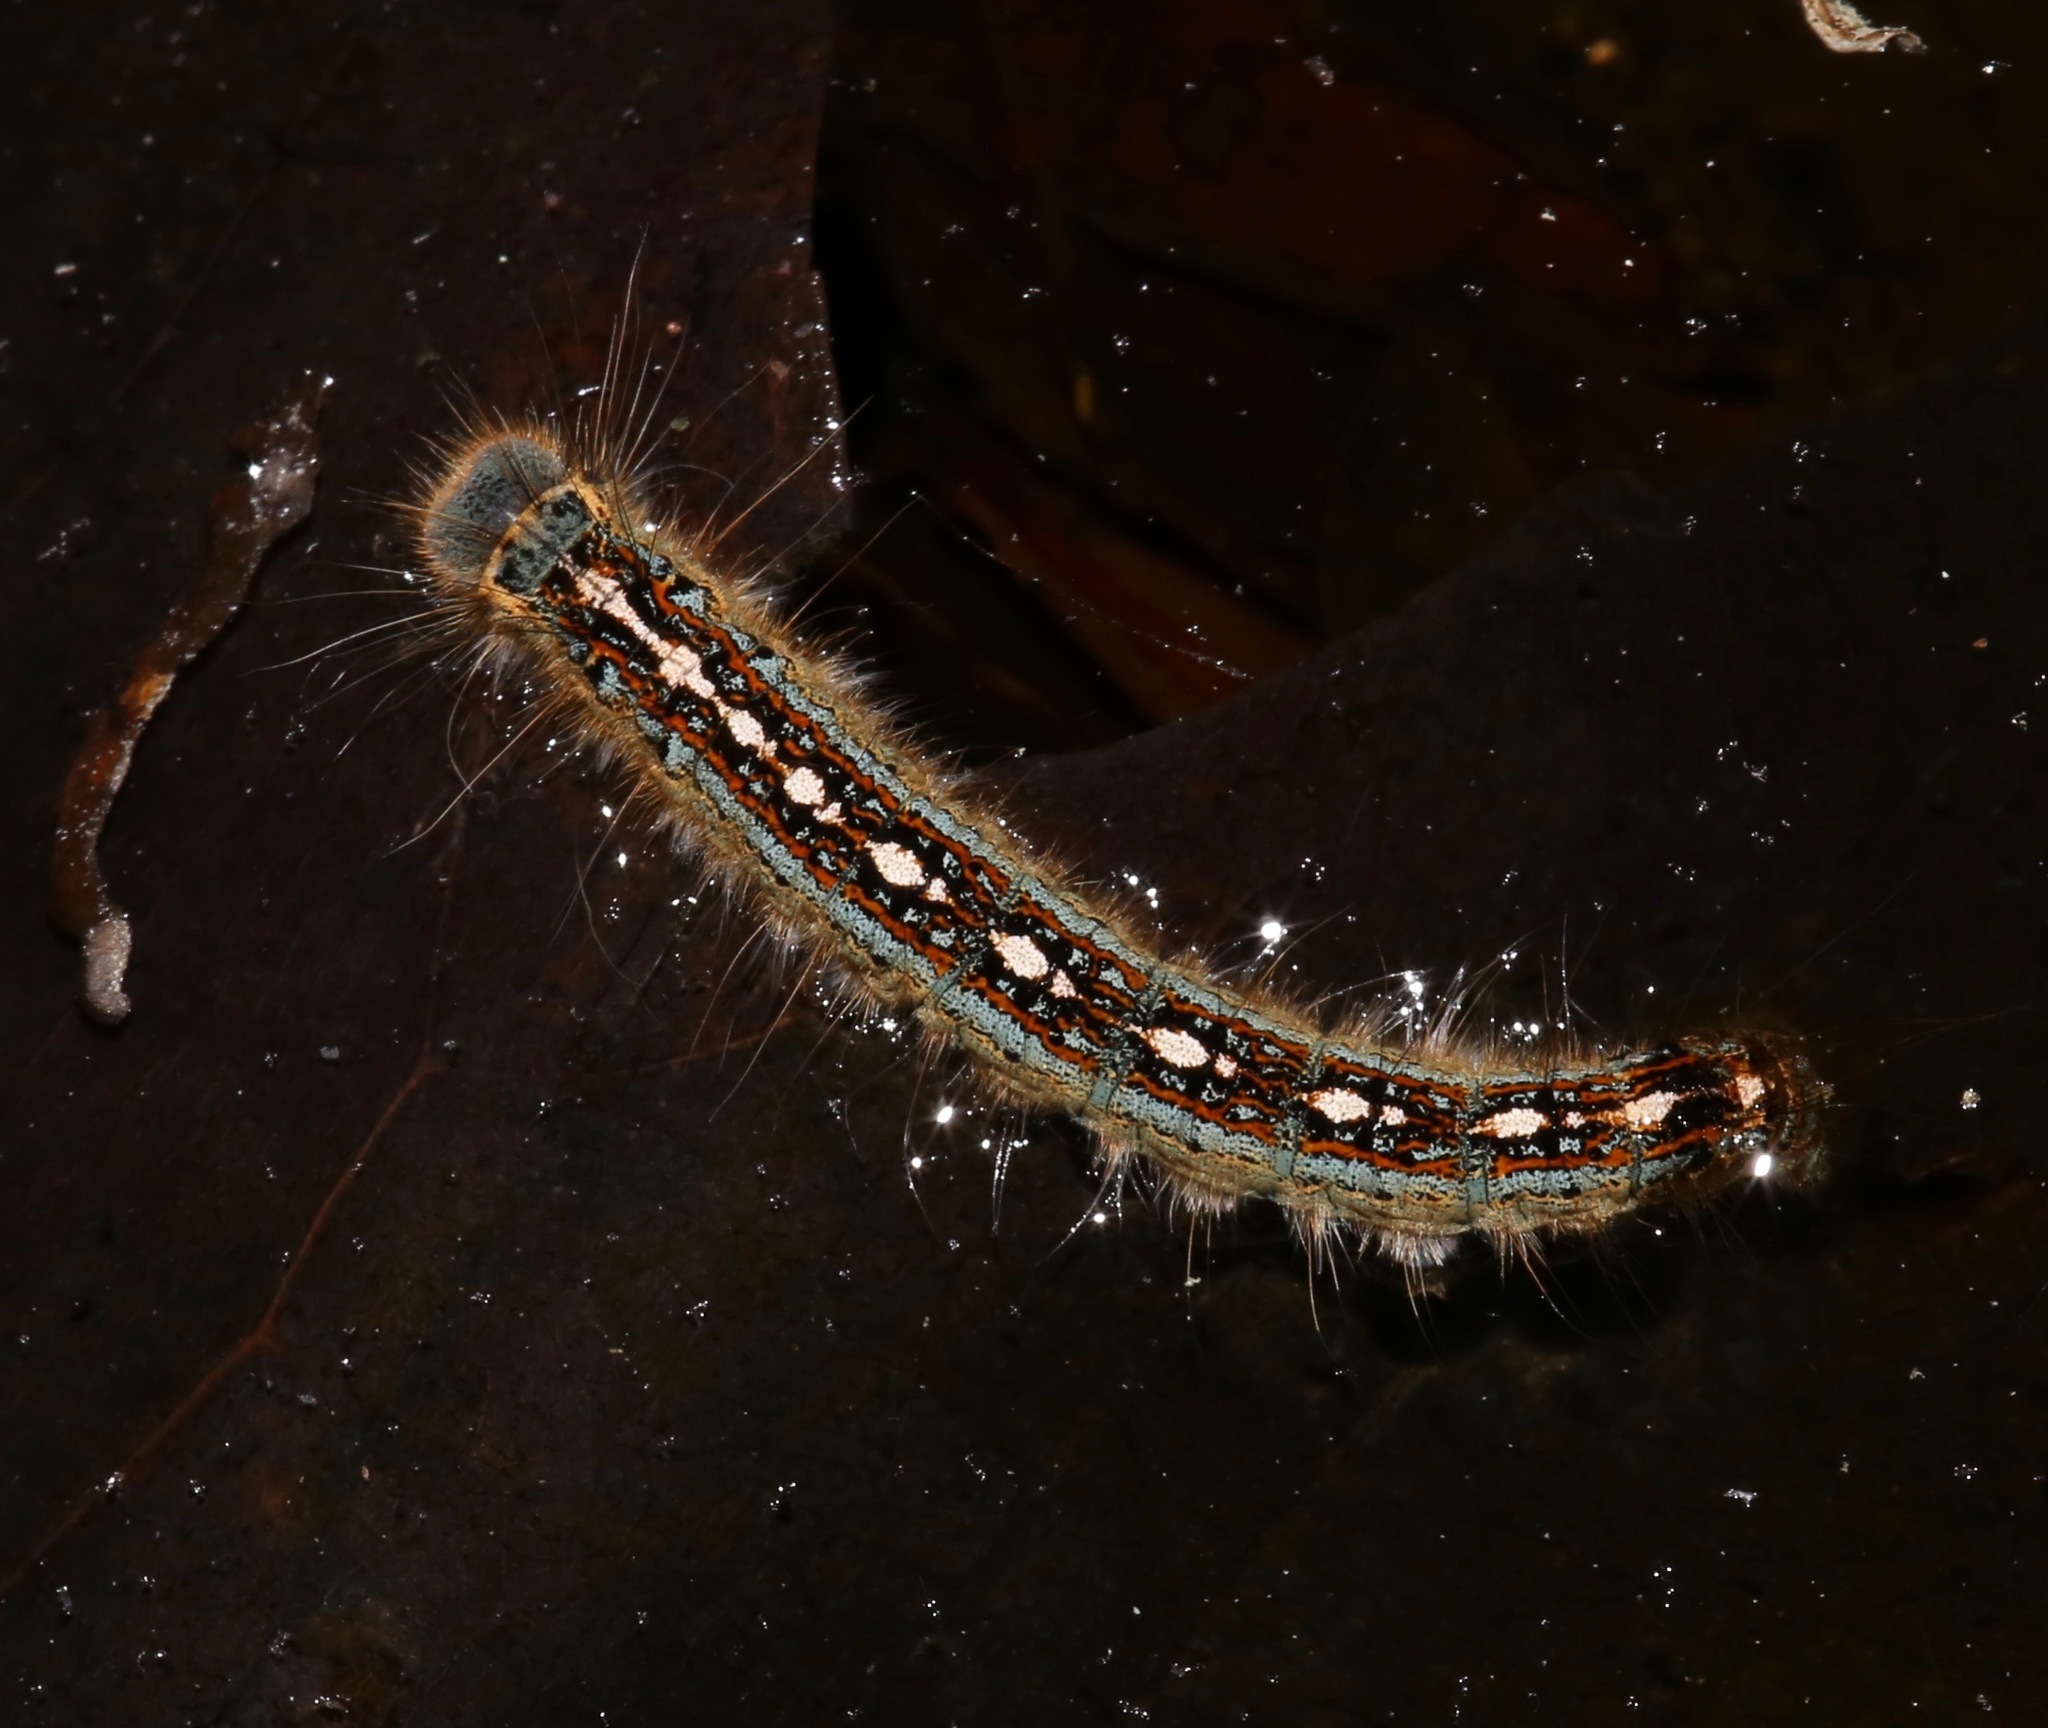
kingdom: Animalia
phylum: Arthropoda
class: Insecta
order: Lepidoptera
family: Lasiocampidae
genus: Malacosoma
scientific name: Malacosoma disstria
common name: Forest tent caterpillar
